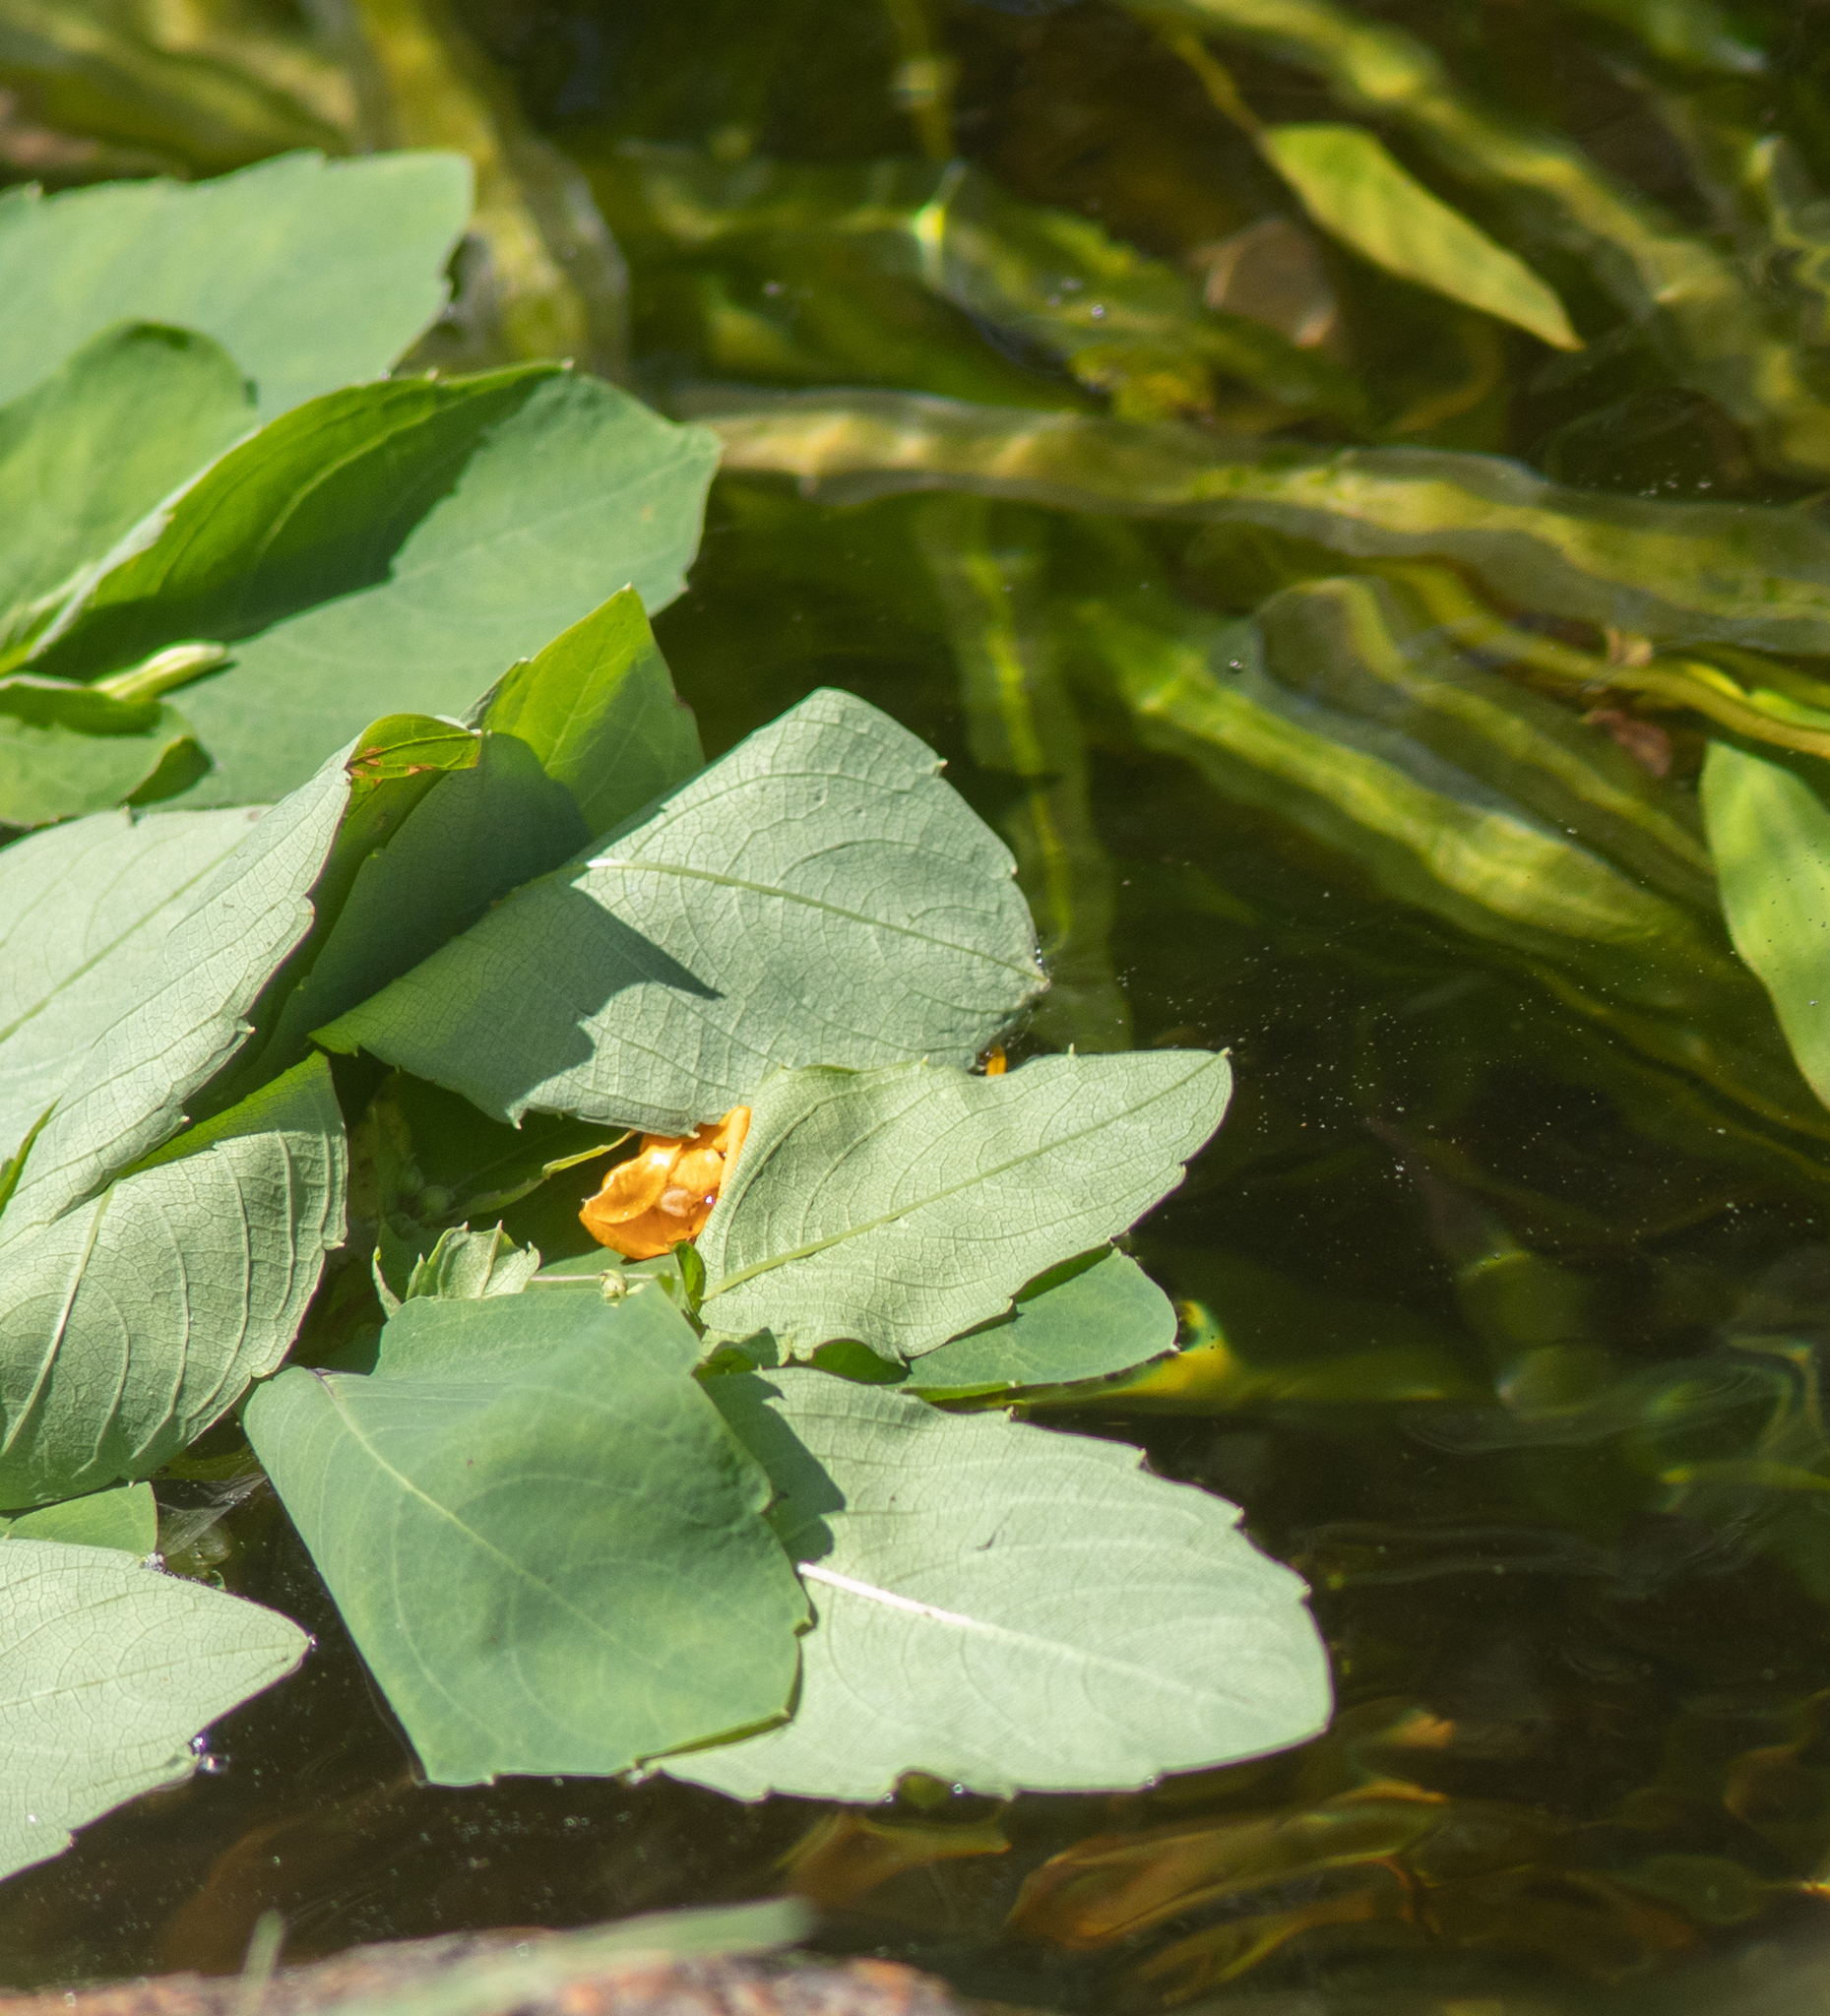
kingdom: Plantae
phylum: Tracheophyta
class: Magnoliopsida
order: Ericales
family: Balsaminaceae
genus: Impatiens
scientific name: Impatiens capensis
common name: Orange balsam
